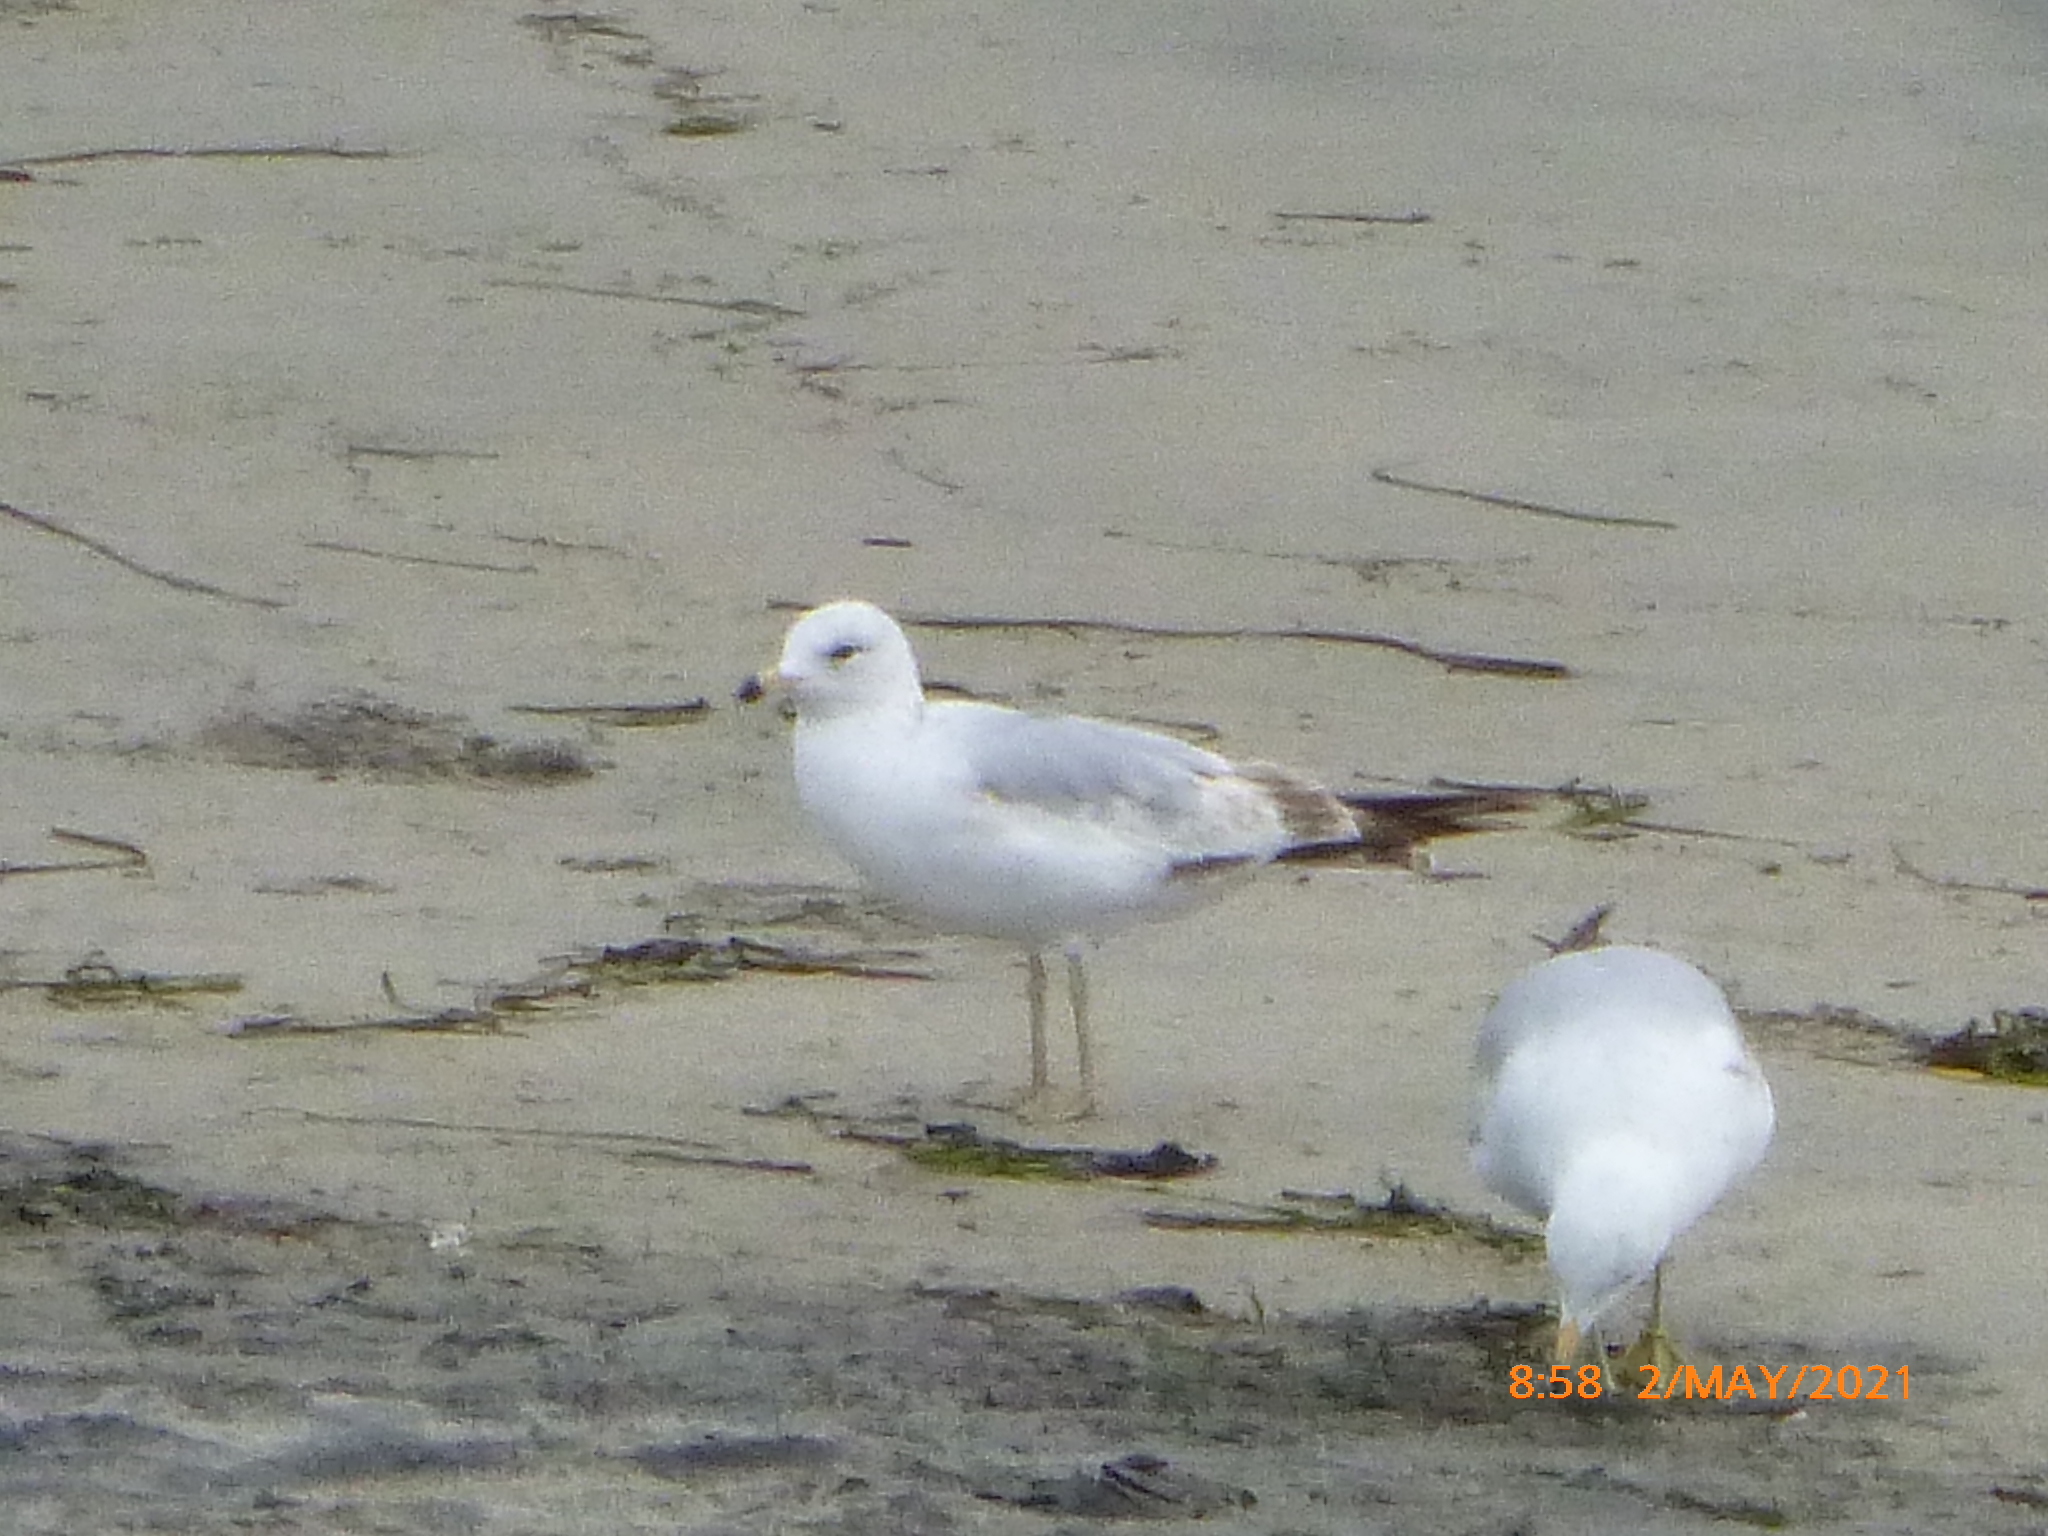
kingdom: Animalia
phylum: Chordata
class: Aves
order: Charadriiformes
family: Laridae
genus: Larus
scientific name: Larus delawarensis
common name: Ring-billed gull
